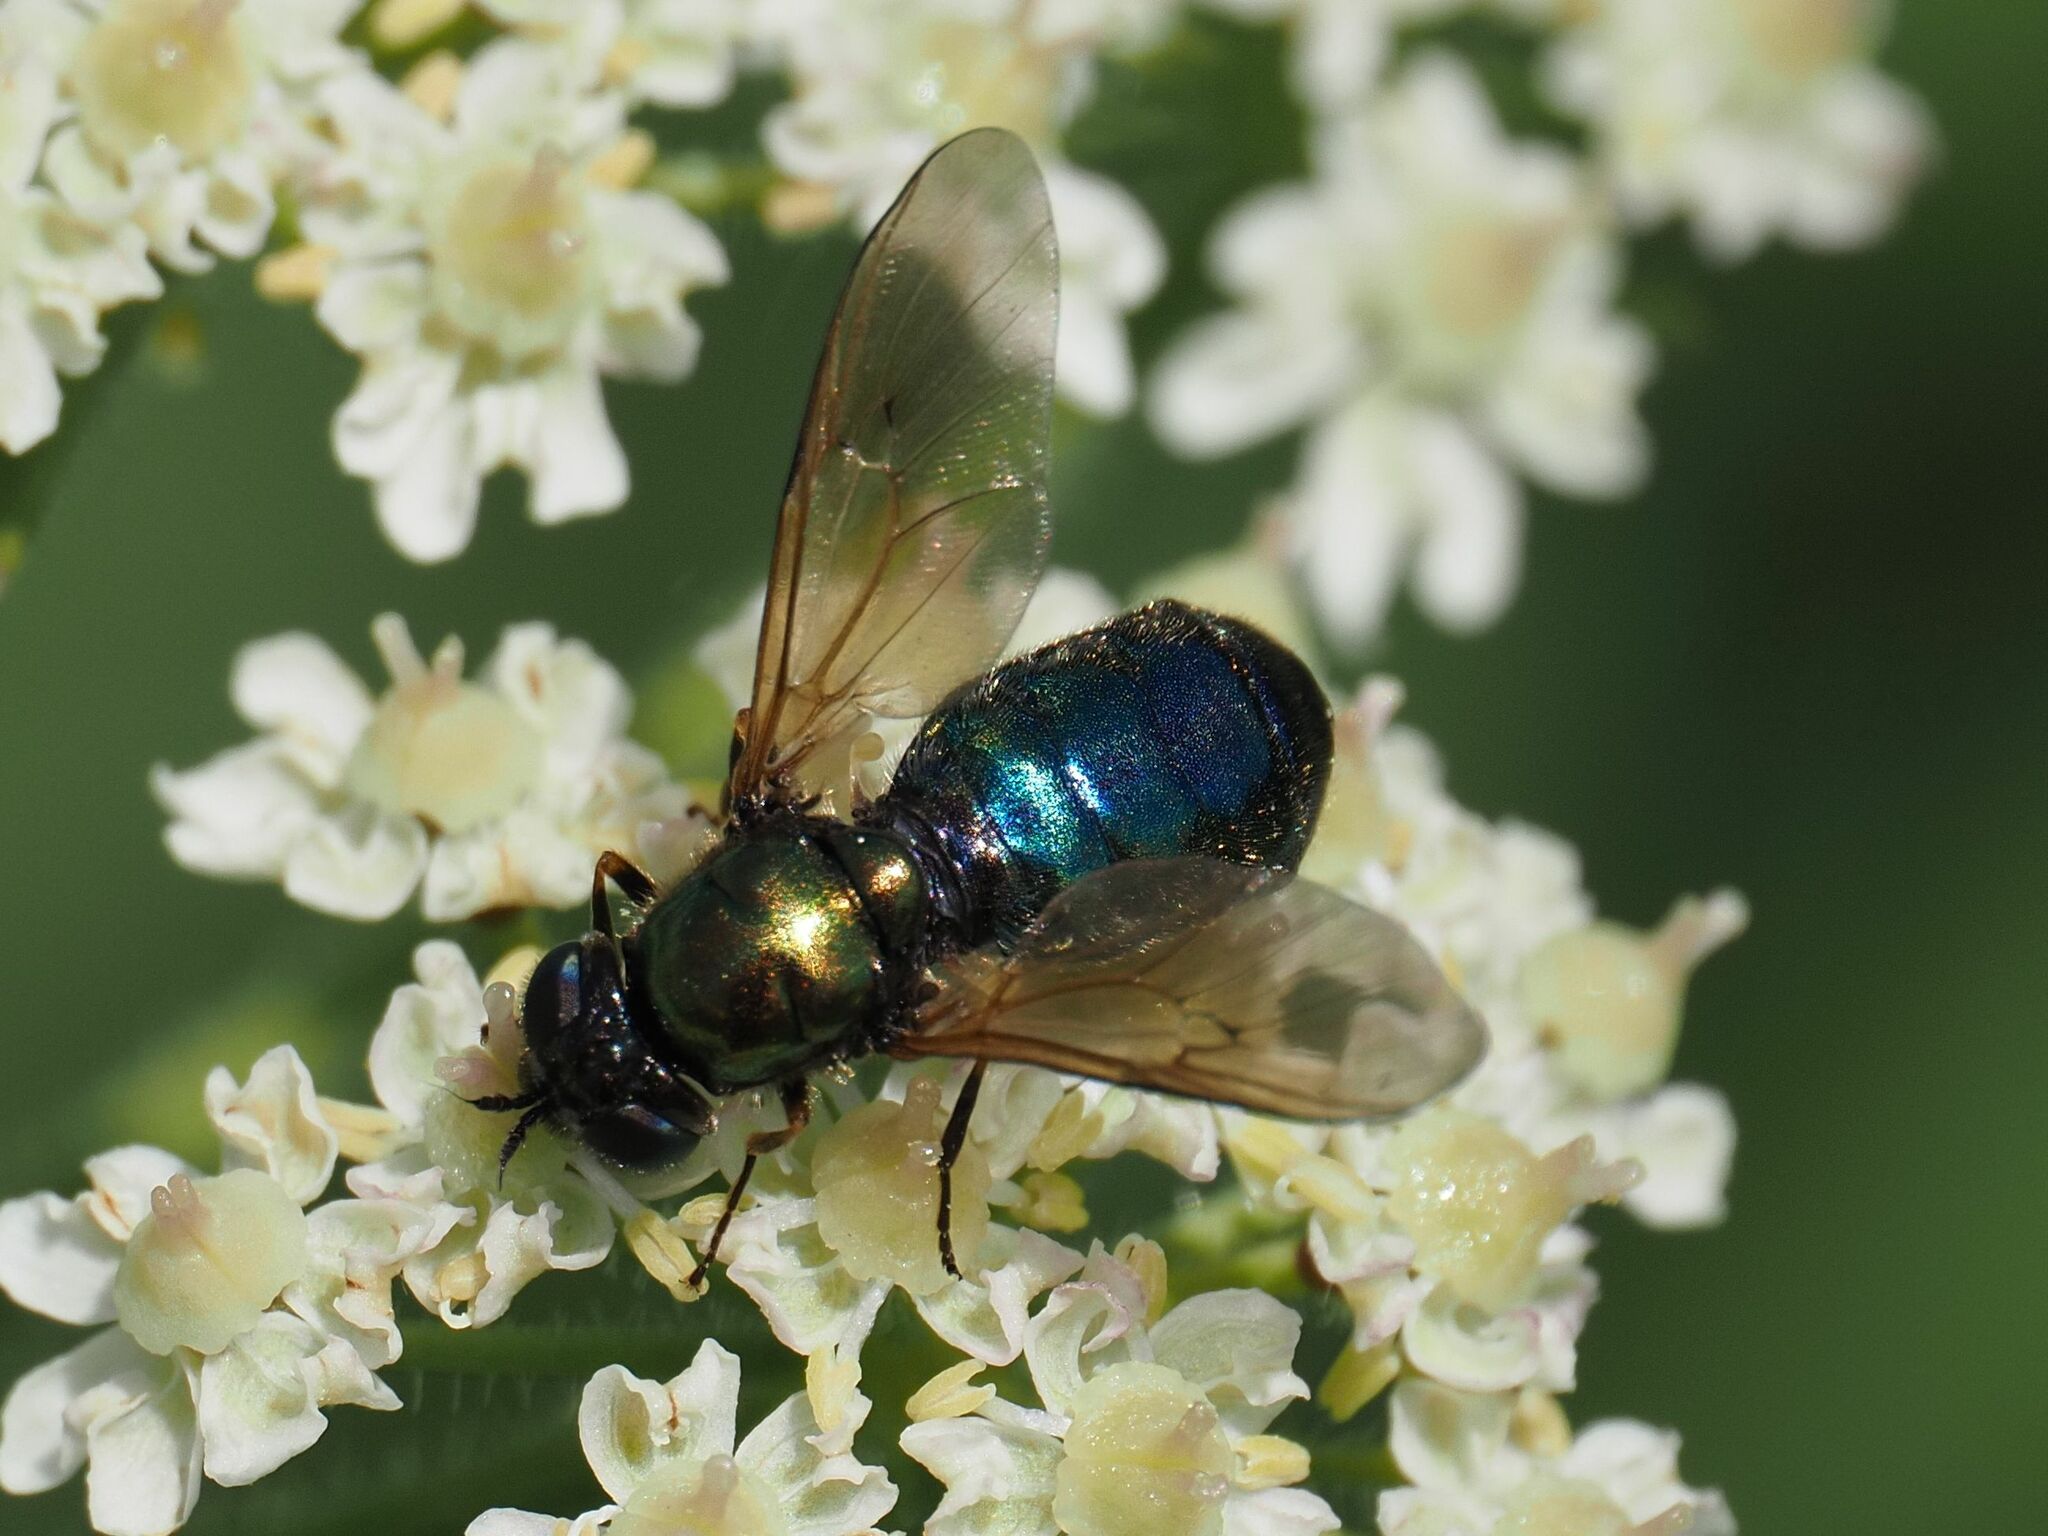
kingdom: Animalia
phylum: Arthropoda
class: Insecta
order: Diptera
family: Stratiomyidae
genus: Chloromyia
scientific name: Chloromyia formosa
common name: Soldier fly
